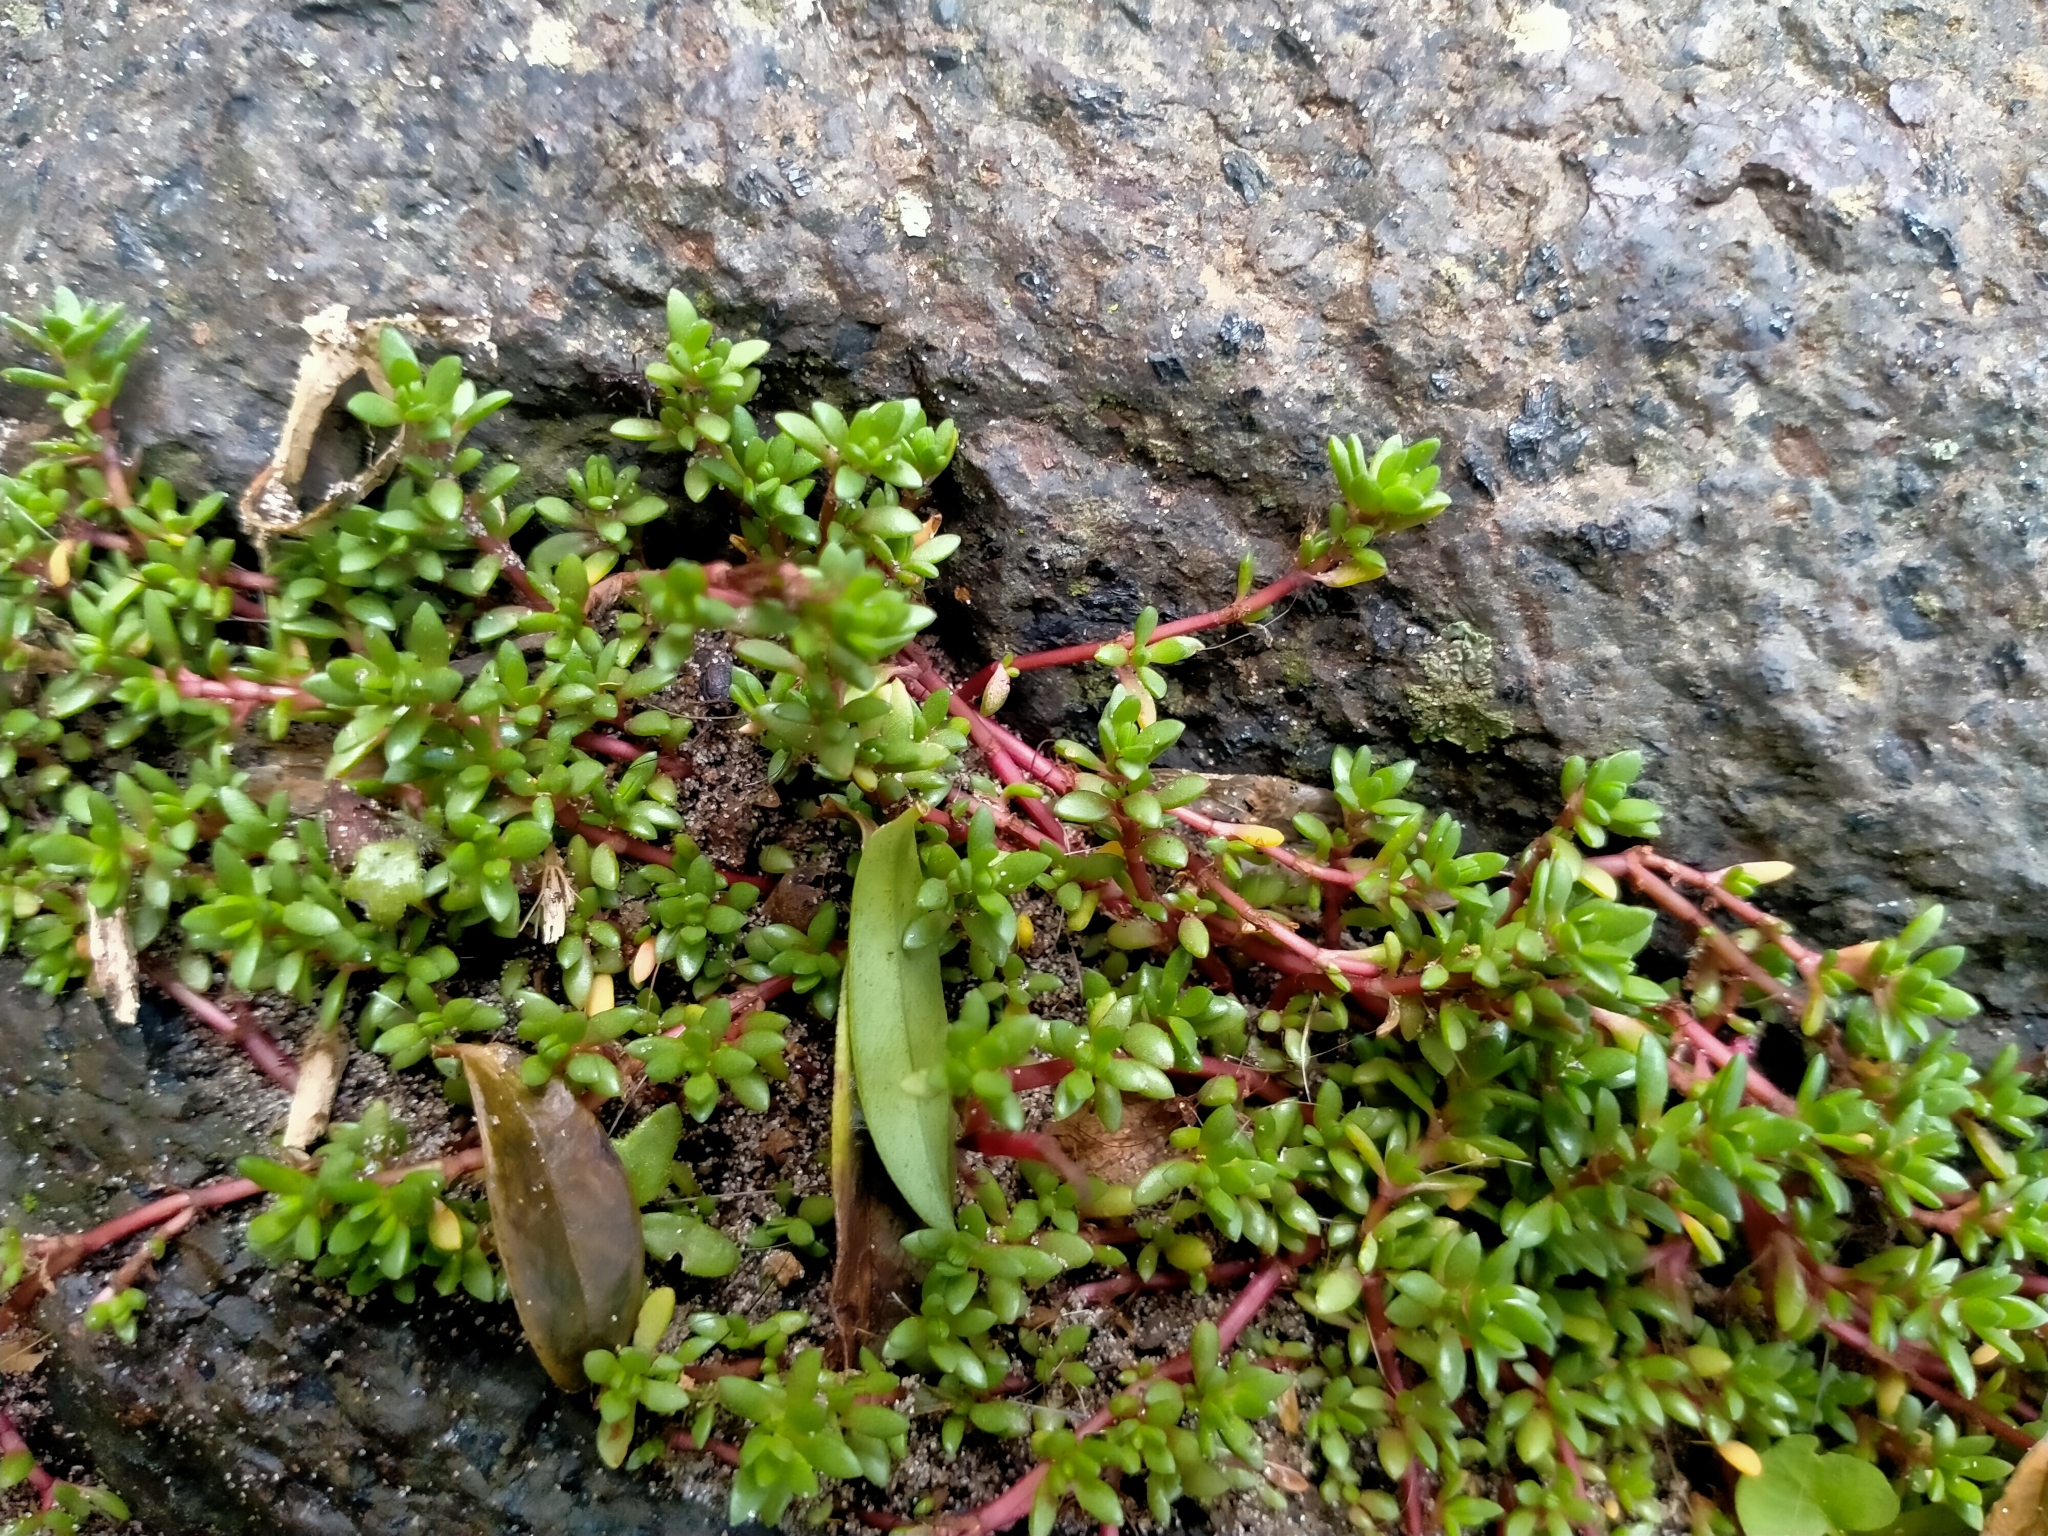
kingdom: Plantae
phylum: Tracheophyta
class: Magnoliopsida
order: Saxifragales
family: Crassulaceae
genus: Crassula
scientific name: Crassula moschata
